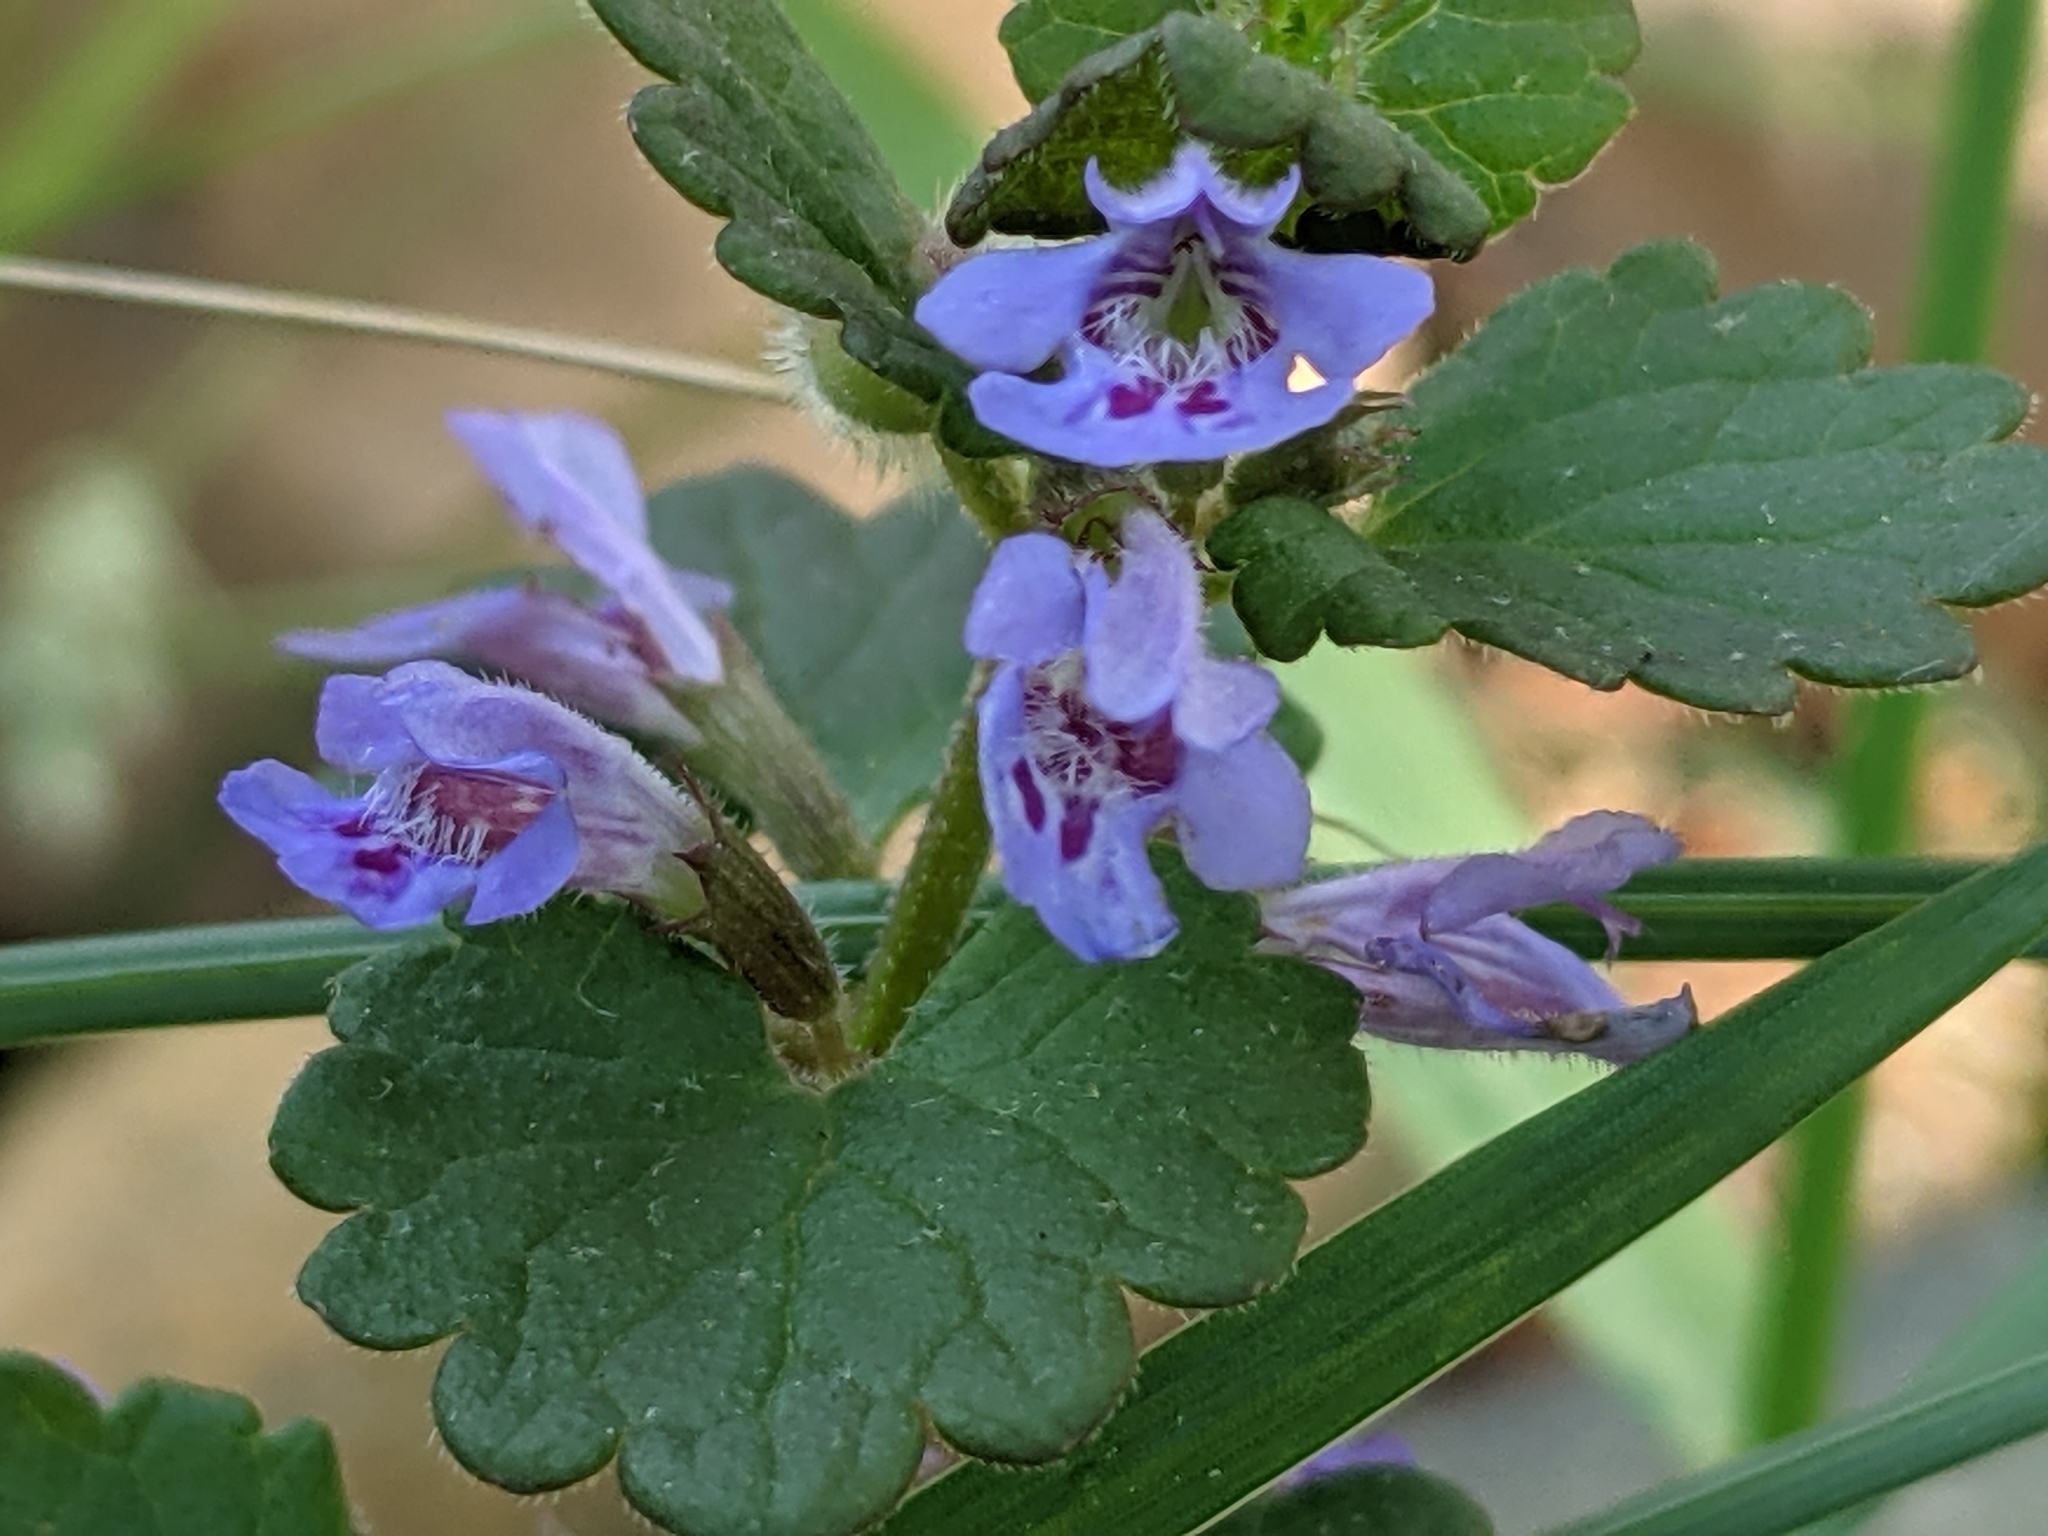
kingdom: Plantae
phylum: Tracheophyta
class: Magnoliopsida
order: Lamiales
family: Lamiaceae
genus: Glechoma
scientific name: Glechoma hederacea
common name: Ground ivy
